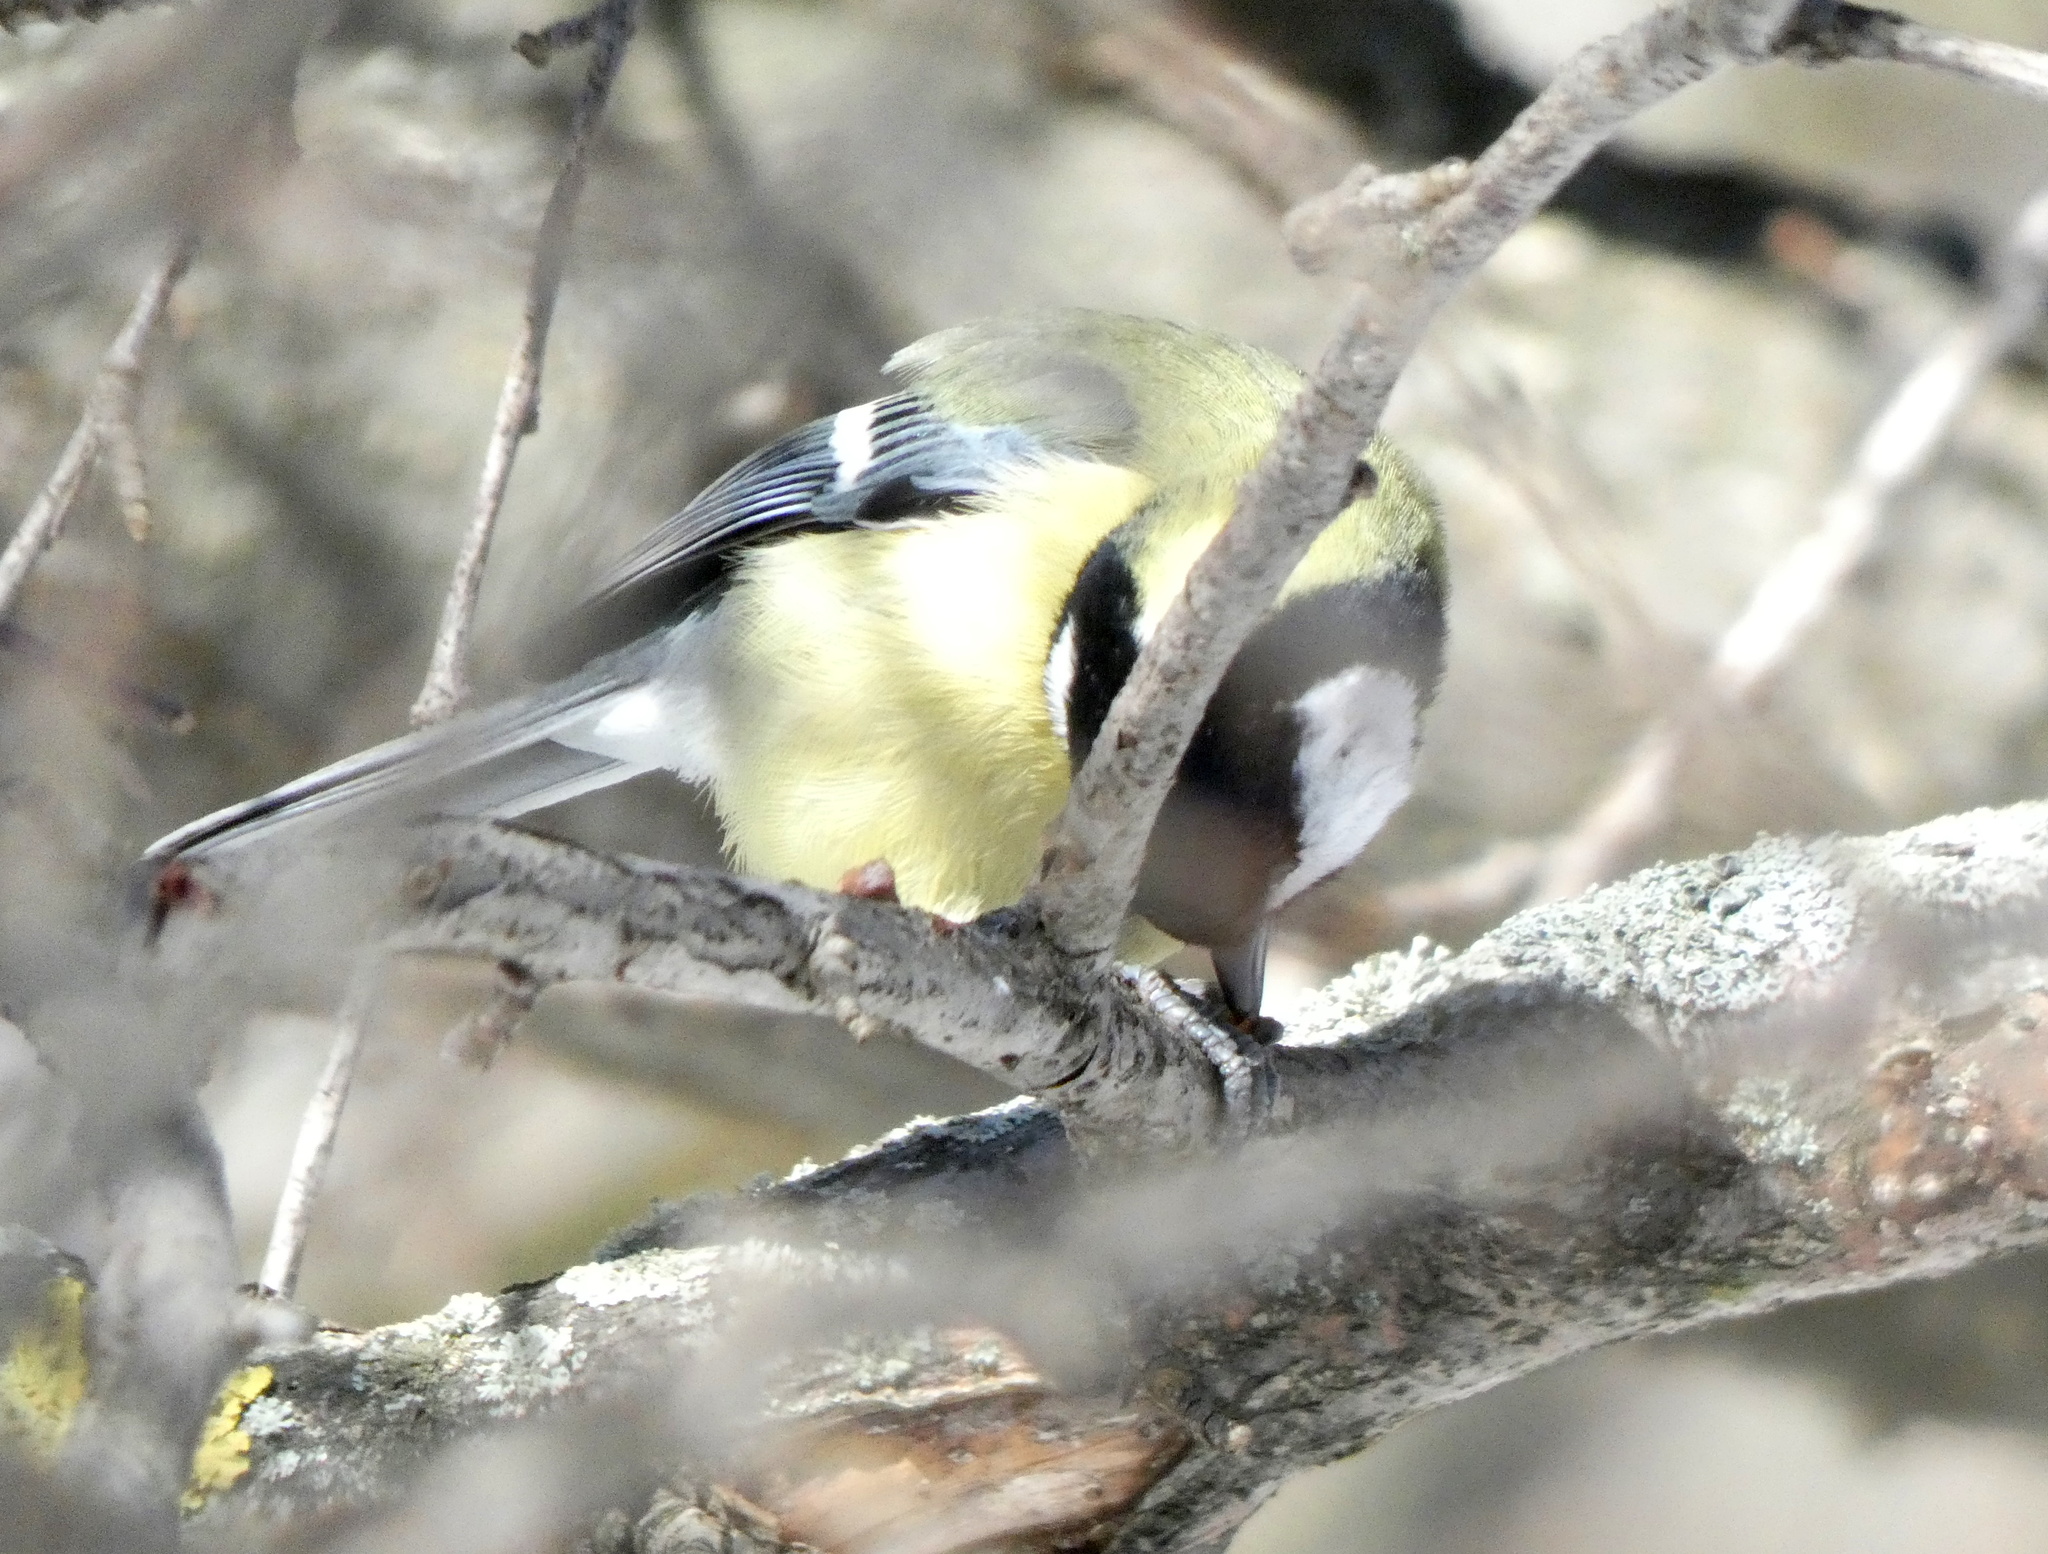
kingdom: Animalia
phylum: Chordata
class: Aves
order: Passeriformes
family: Paridae
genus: Parus
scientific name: Parus major
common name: Great tit
